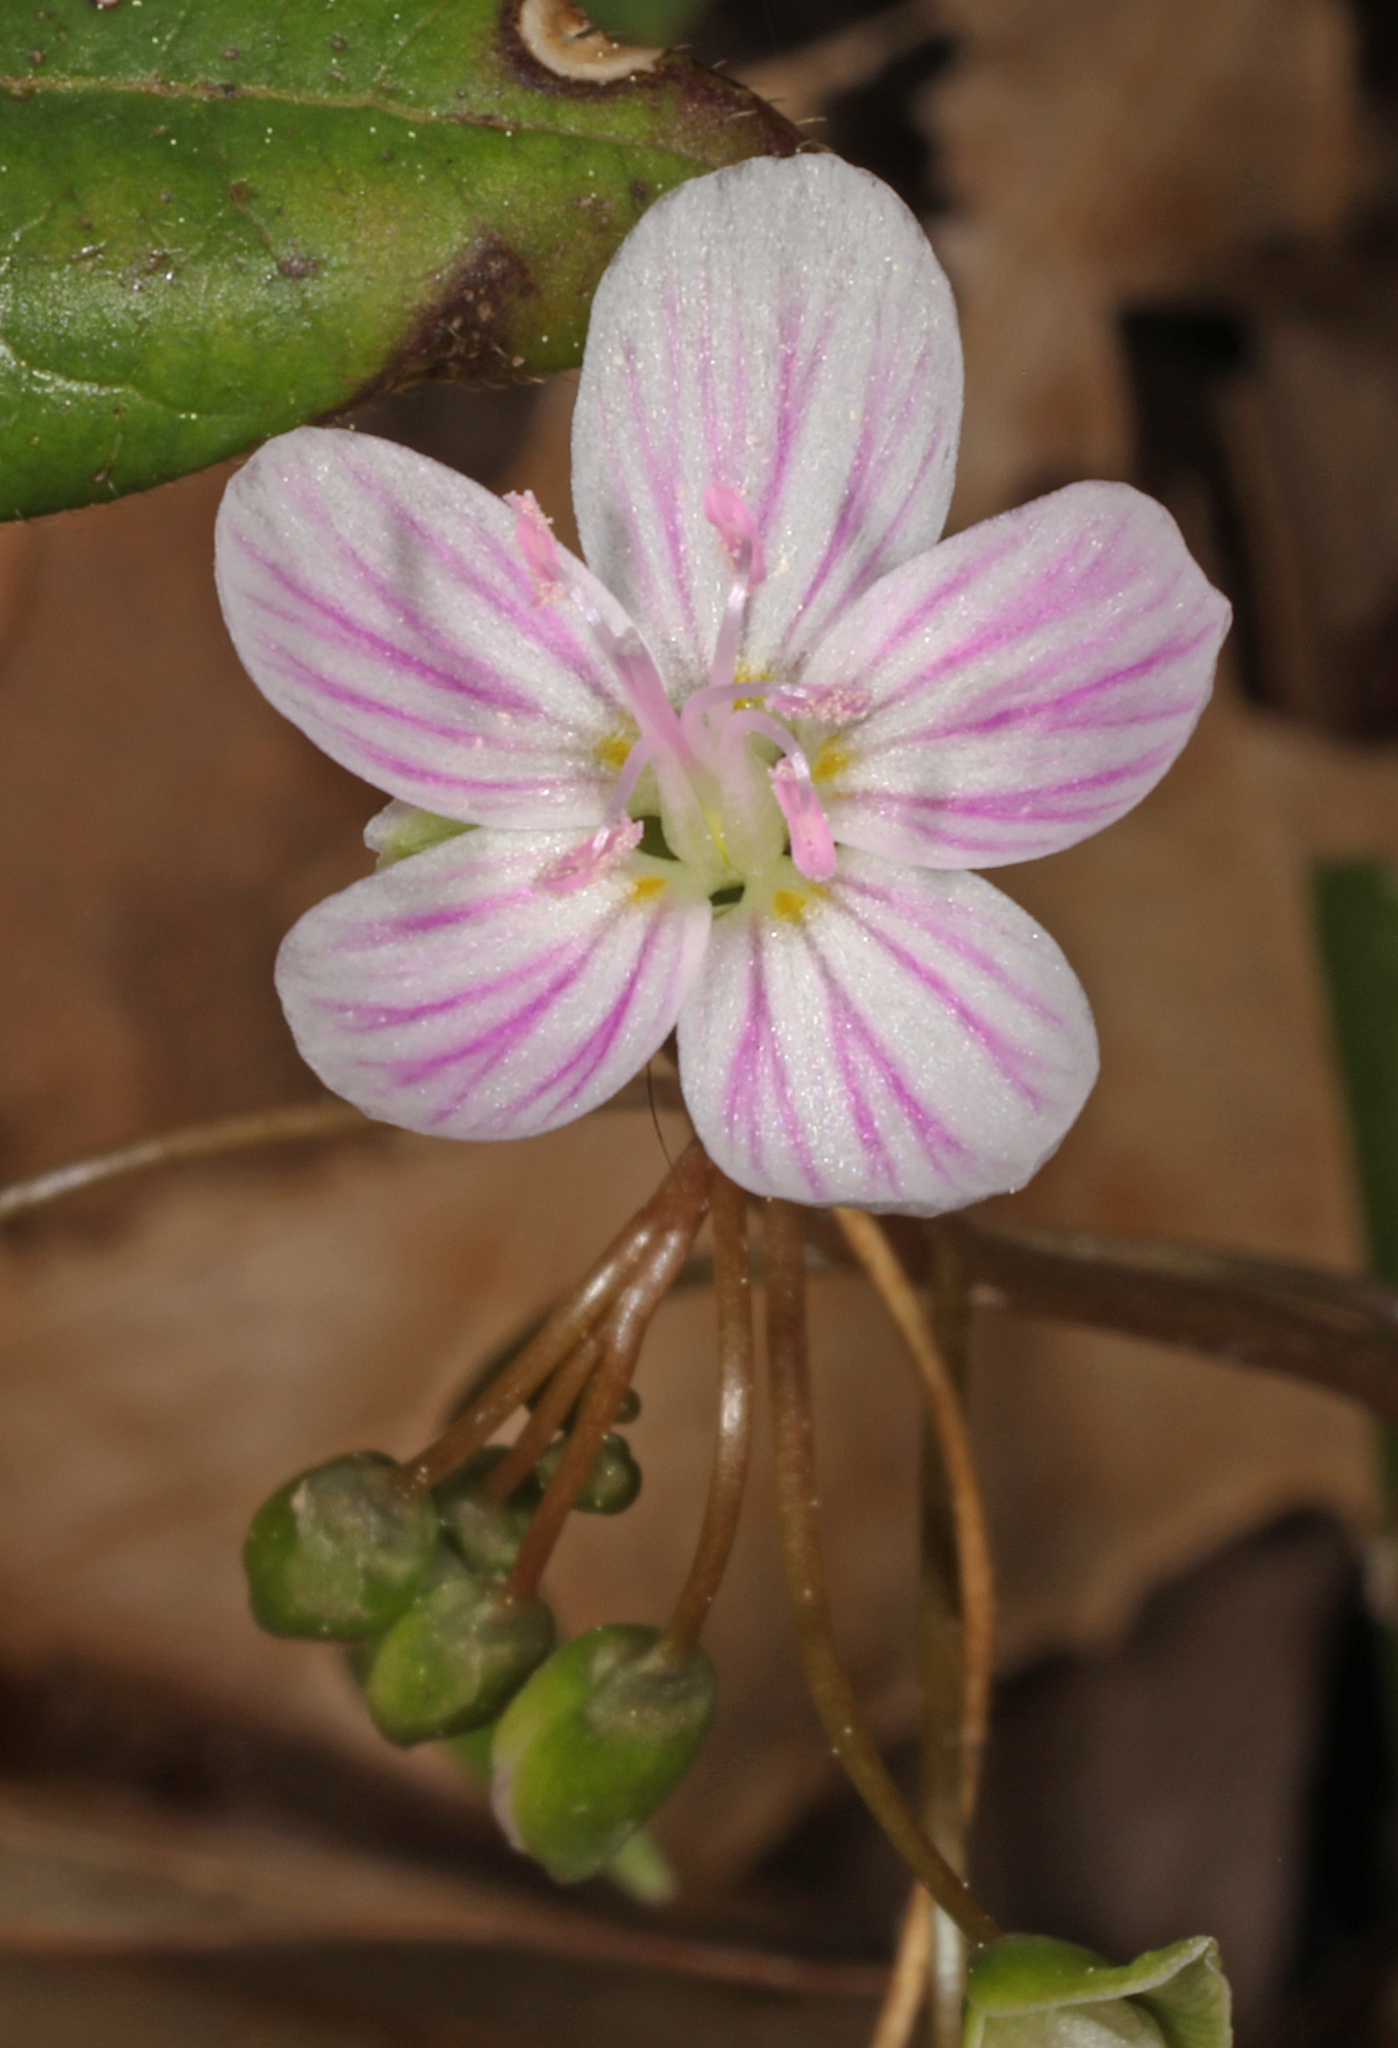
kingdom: Plantae
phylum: Tracheophyta
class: Magnoliopsida
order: Caryophyllales
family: Montiaceae
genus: Claytonia
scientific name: Claytonia virginica
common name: Virginia springbeauty
